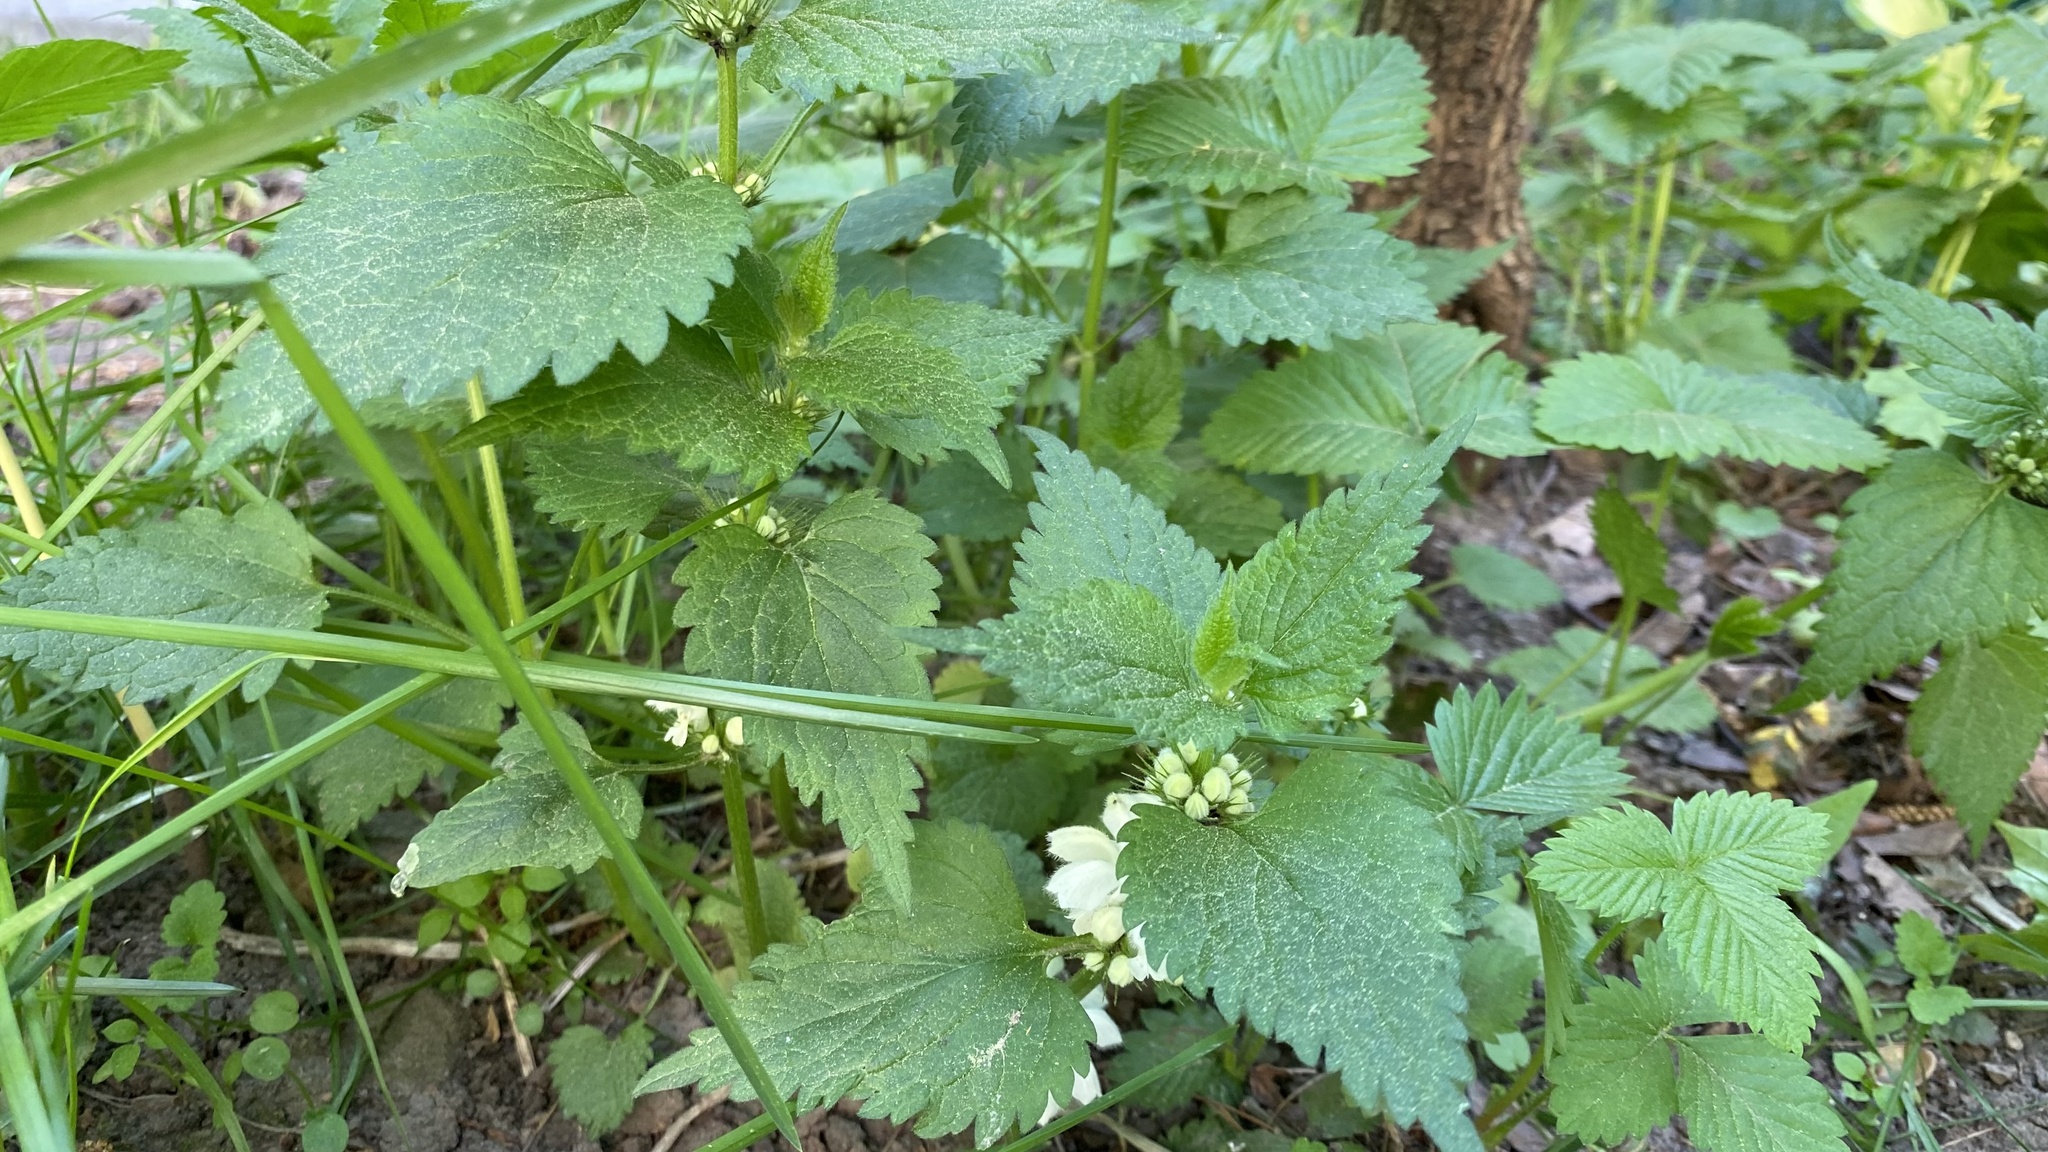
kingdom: Plantae
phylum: Tracheophyta
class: Magnoliopsida
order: Lamiales
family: Lamiaceae
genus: Lamium
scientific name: Lamium album
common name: White dead-nettle
